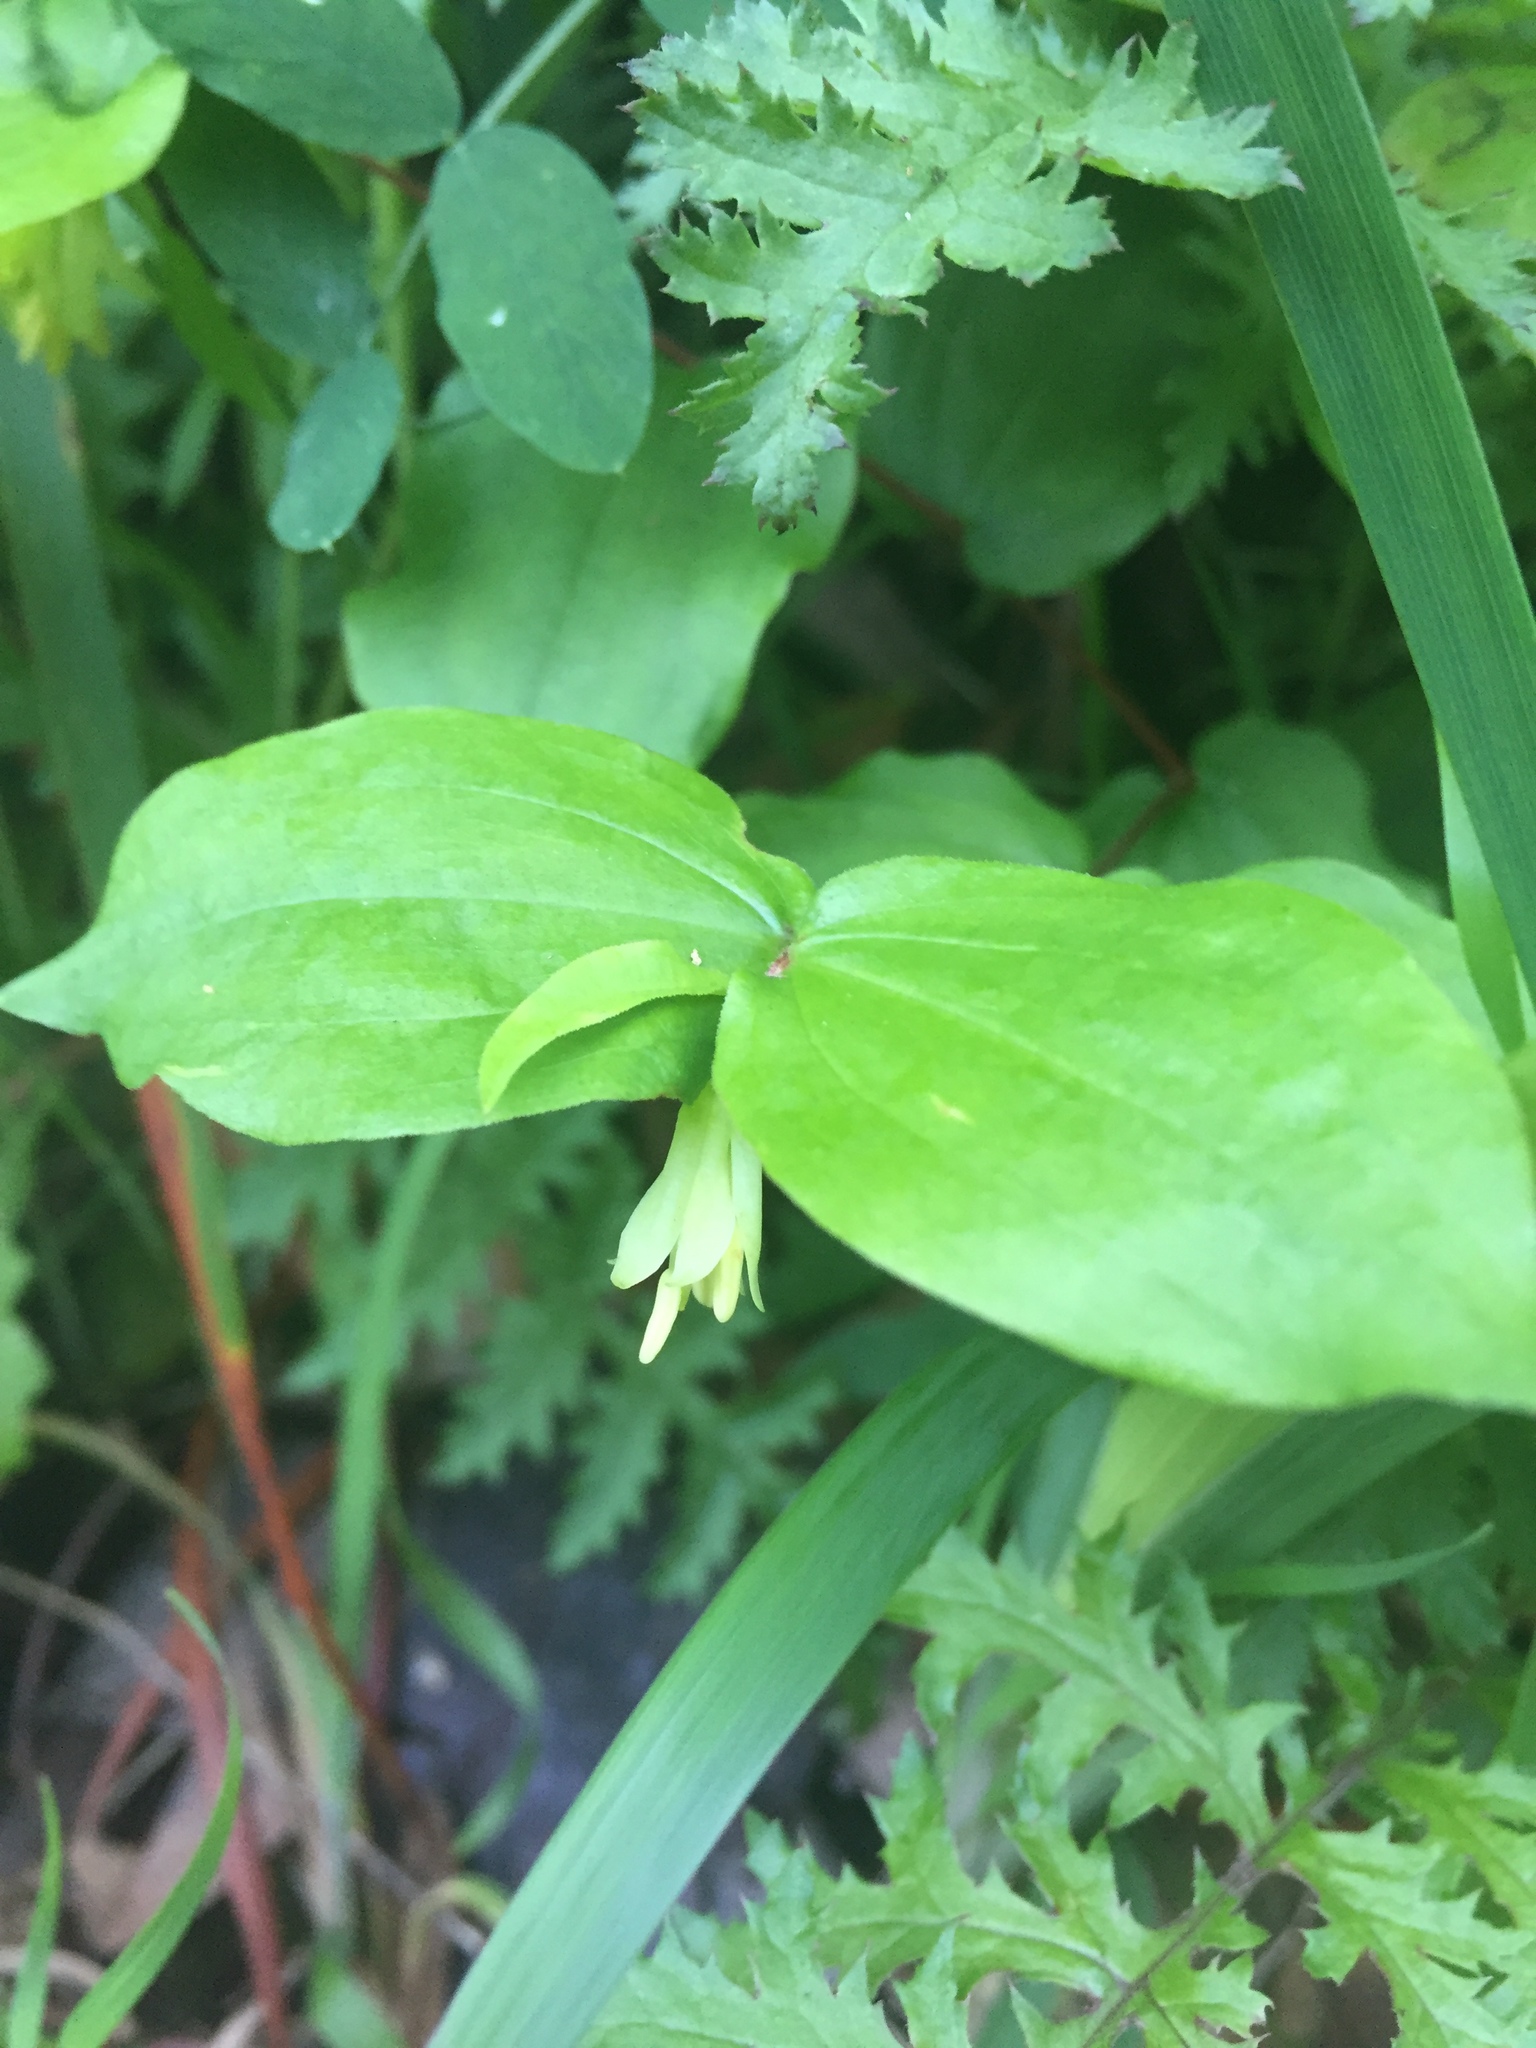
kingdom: Plantae
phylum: Tracheophyta
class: Liliopsida
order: Liliales
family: Liliaceae
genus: Prosartes
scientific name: Prosartes hookeri
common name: Fairy-bells
